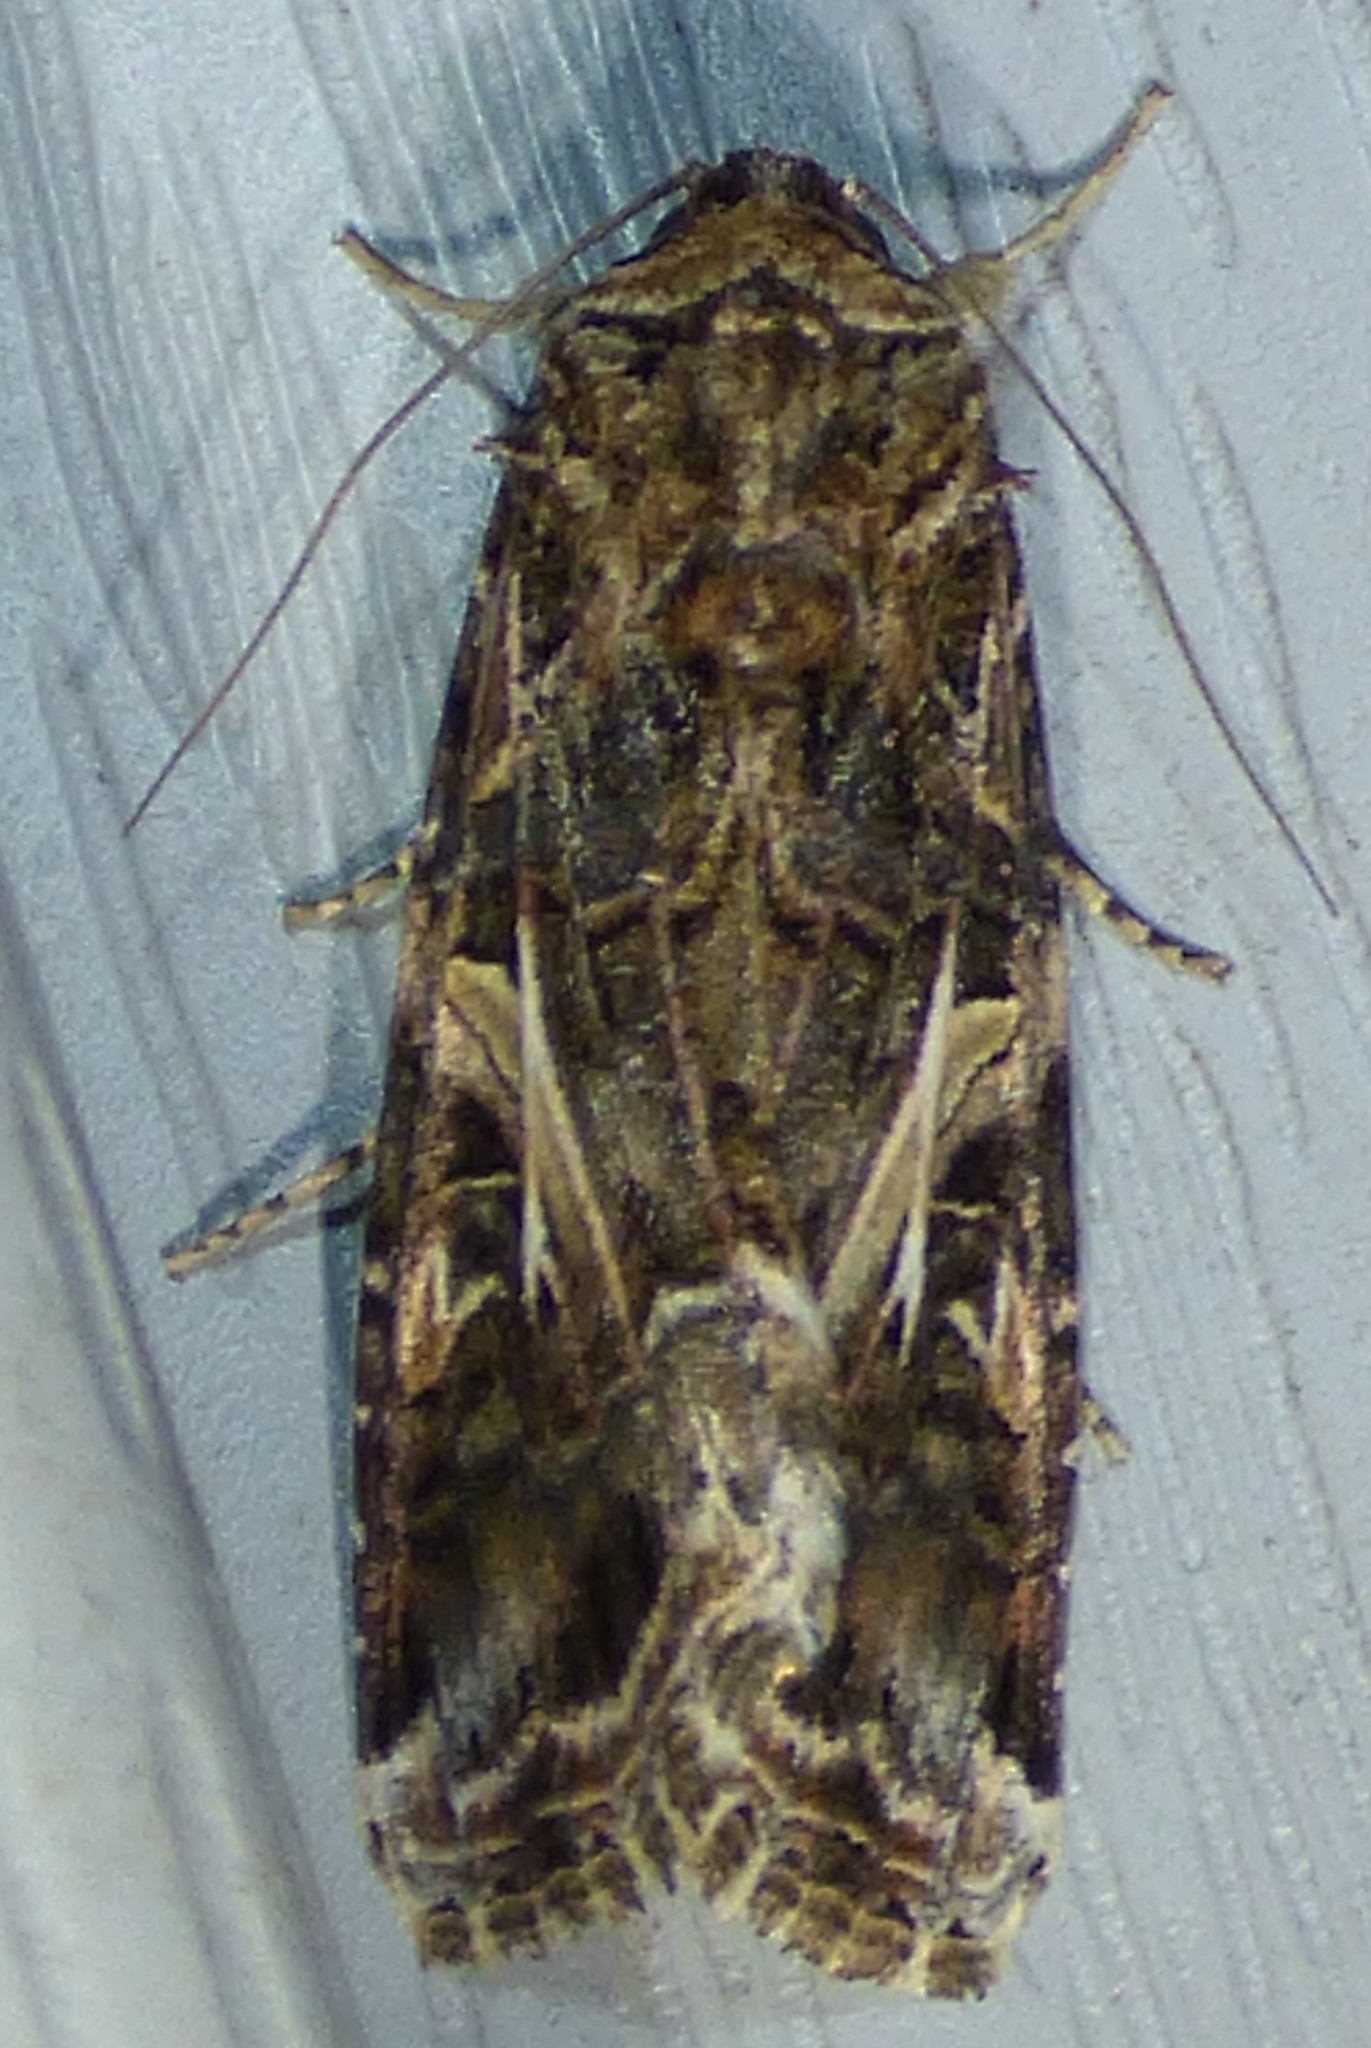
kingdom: Animalia
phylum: Arthropoda
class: Insecta
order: Lepidoptera
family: Noctuidae
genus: Spodoptera
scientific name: Spodoptera ornithogalli
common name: Yellow-striped armyworm
